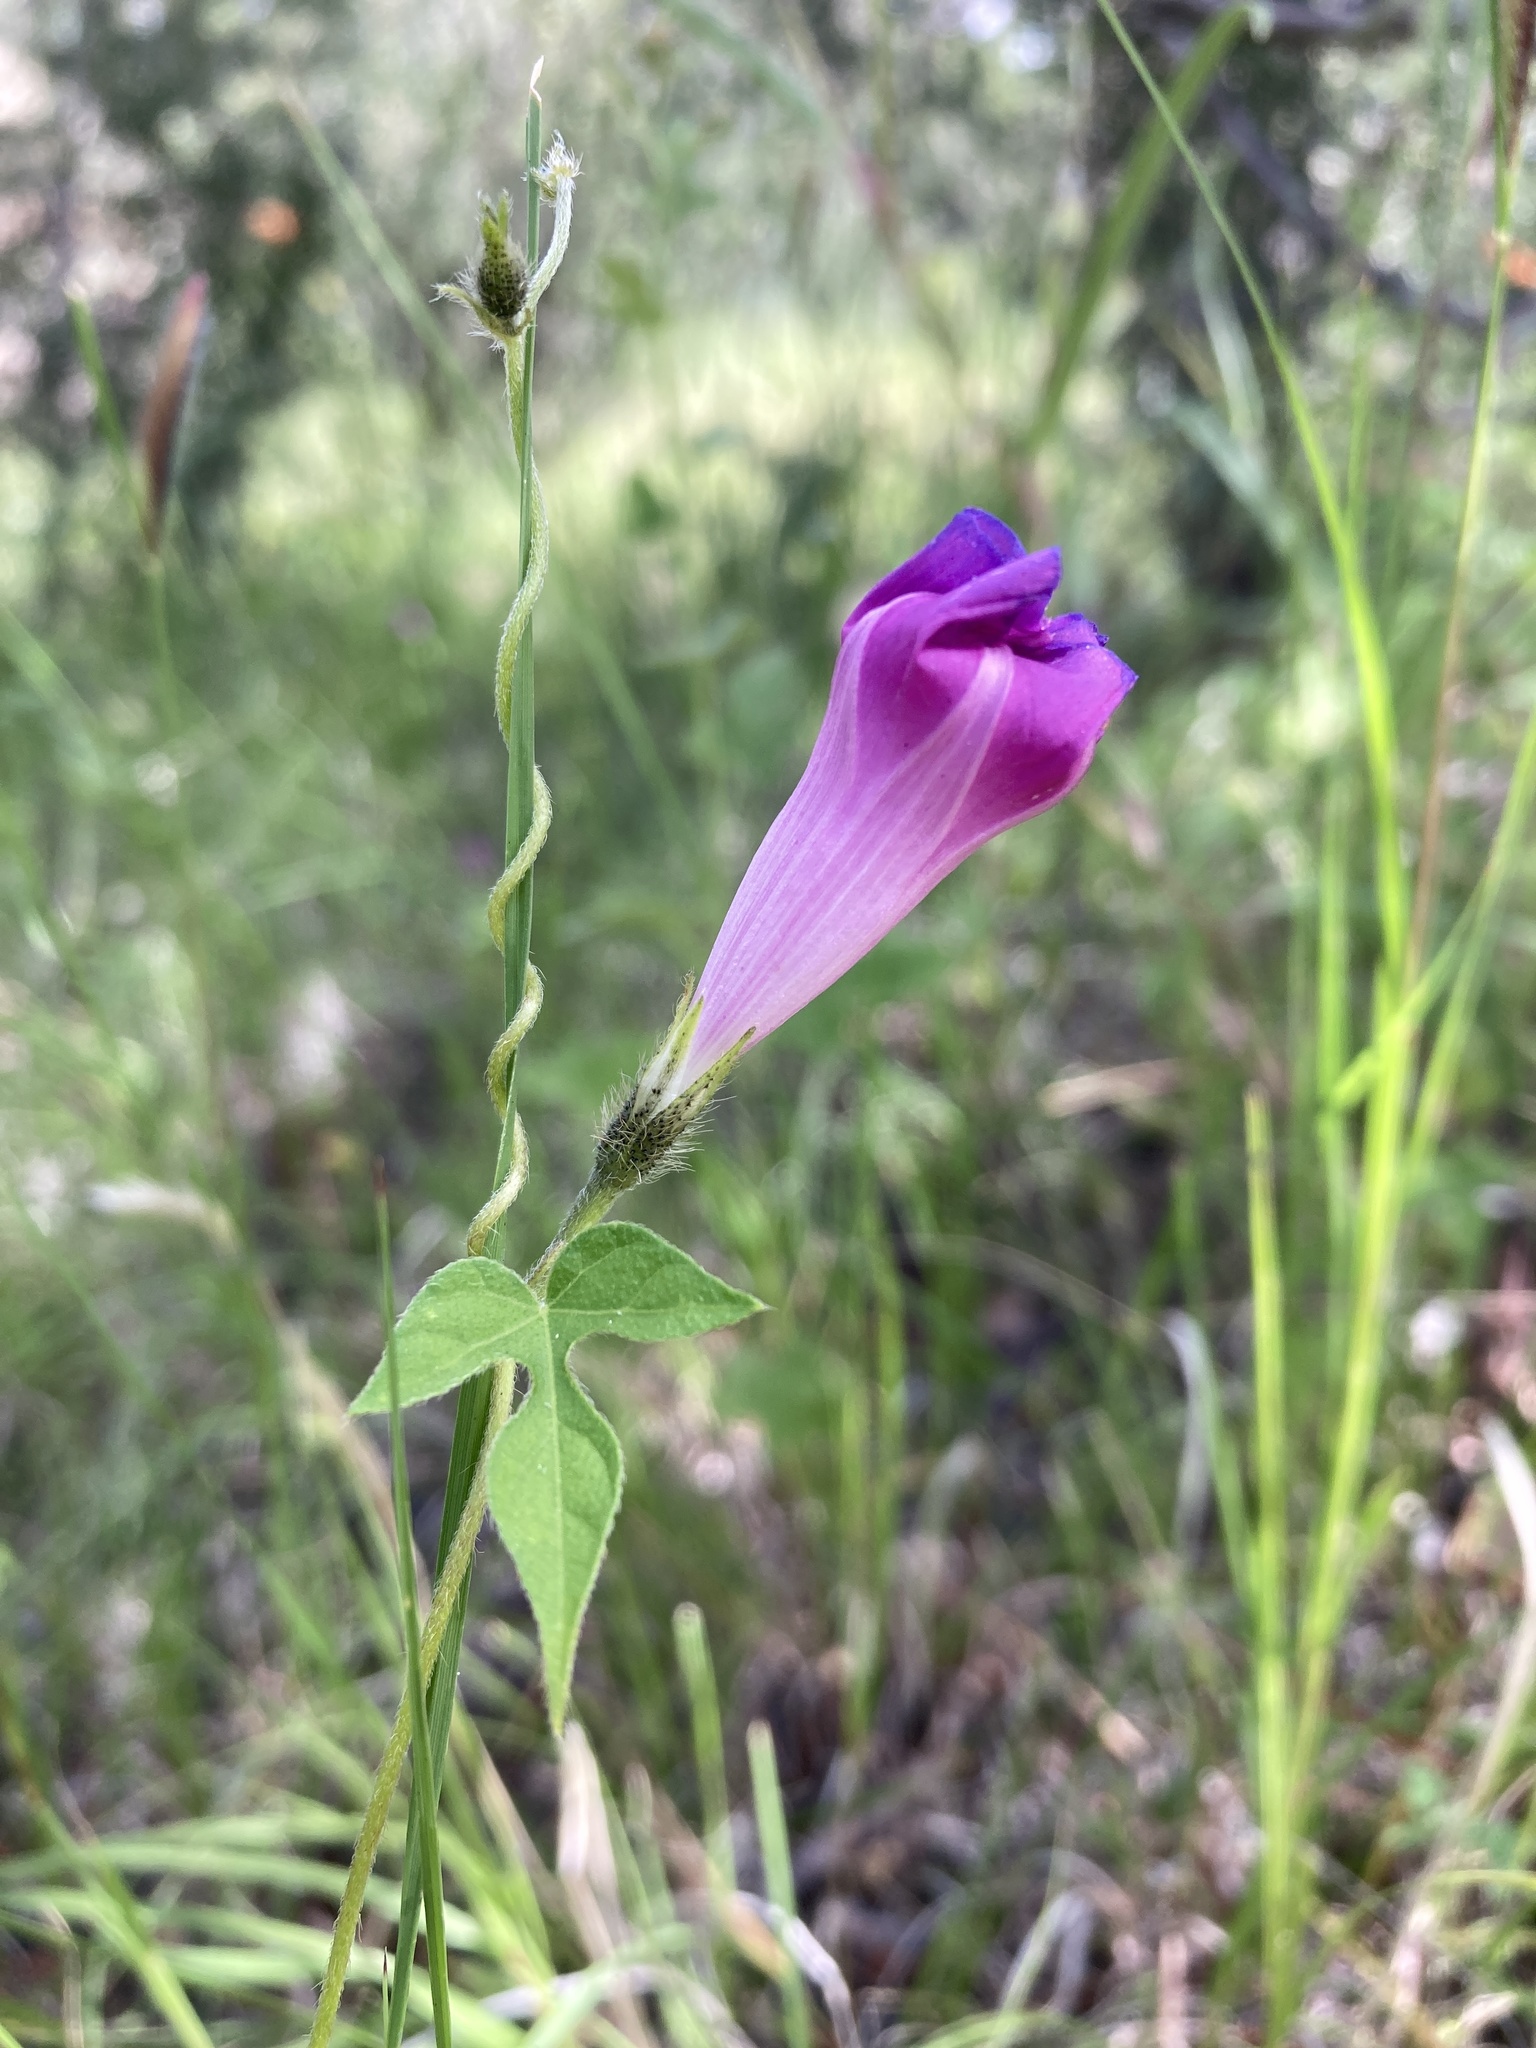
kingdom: Plantae
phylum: Tracheophyta
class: Magnoliopsida
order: Solanales
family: Convolvulaceae
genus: Ipomoea
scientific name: Ipomoea purpurea
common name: Common morning-glory
